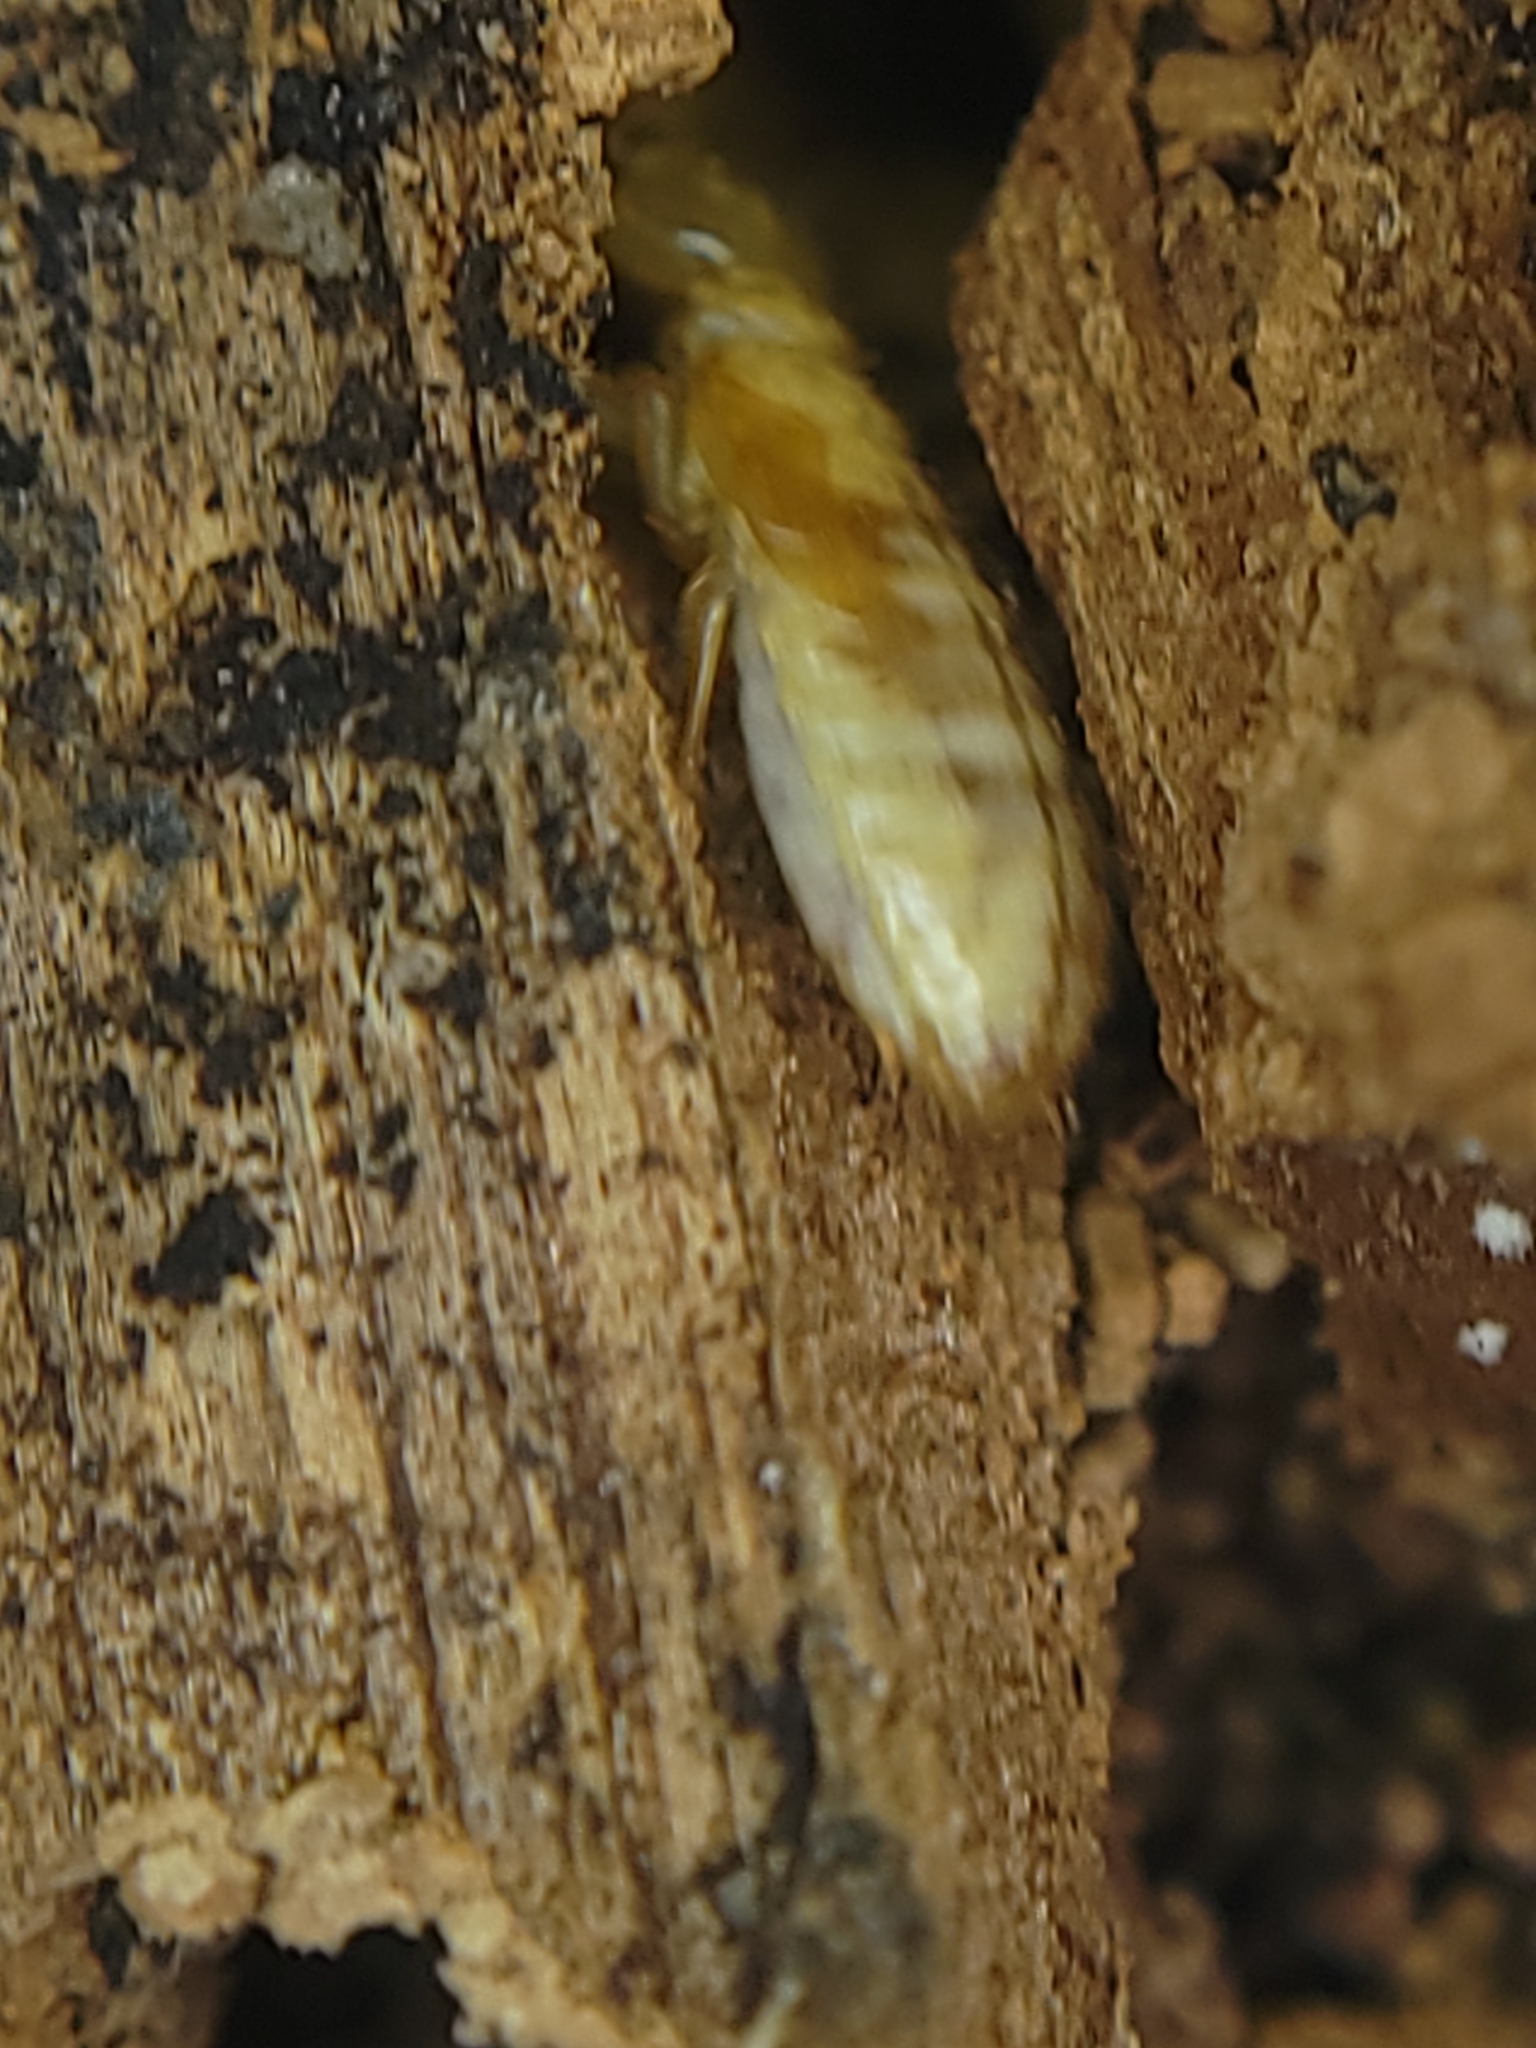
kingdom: Animalia
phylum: Arthropoda
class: Insecta
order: Blattodea
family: Archotermopsidae
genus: Zootermopsis
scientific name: Zootermopsis
